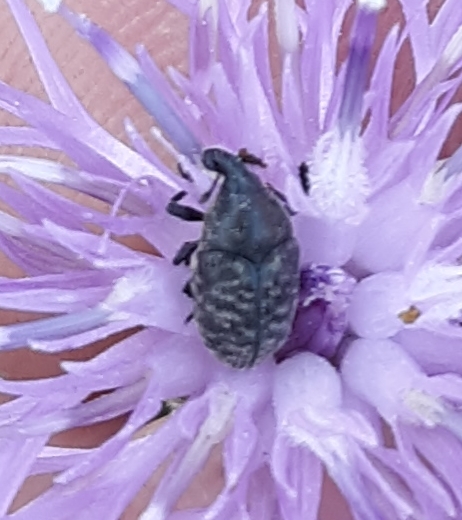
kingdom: Animalia
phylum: Arthropoda
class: Insecta
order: Coleoptera
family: Curculionidae
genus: Larinus
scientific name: Larinus obtusus
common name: Weevil
